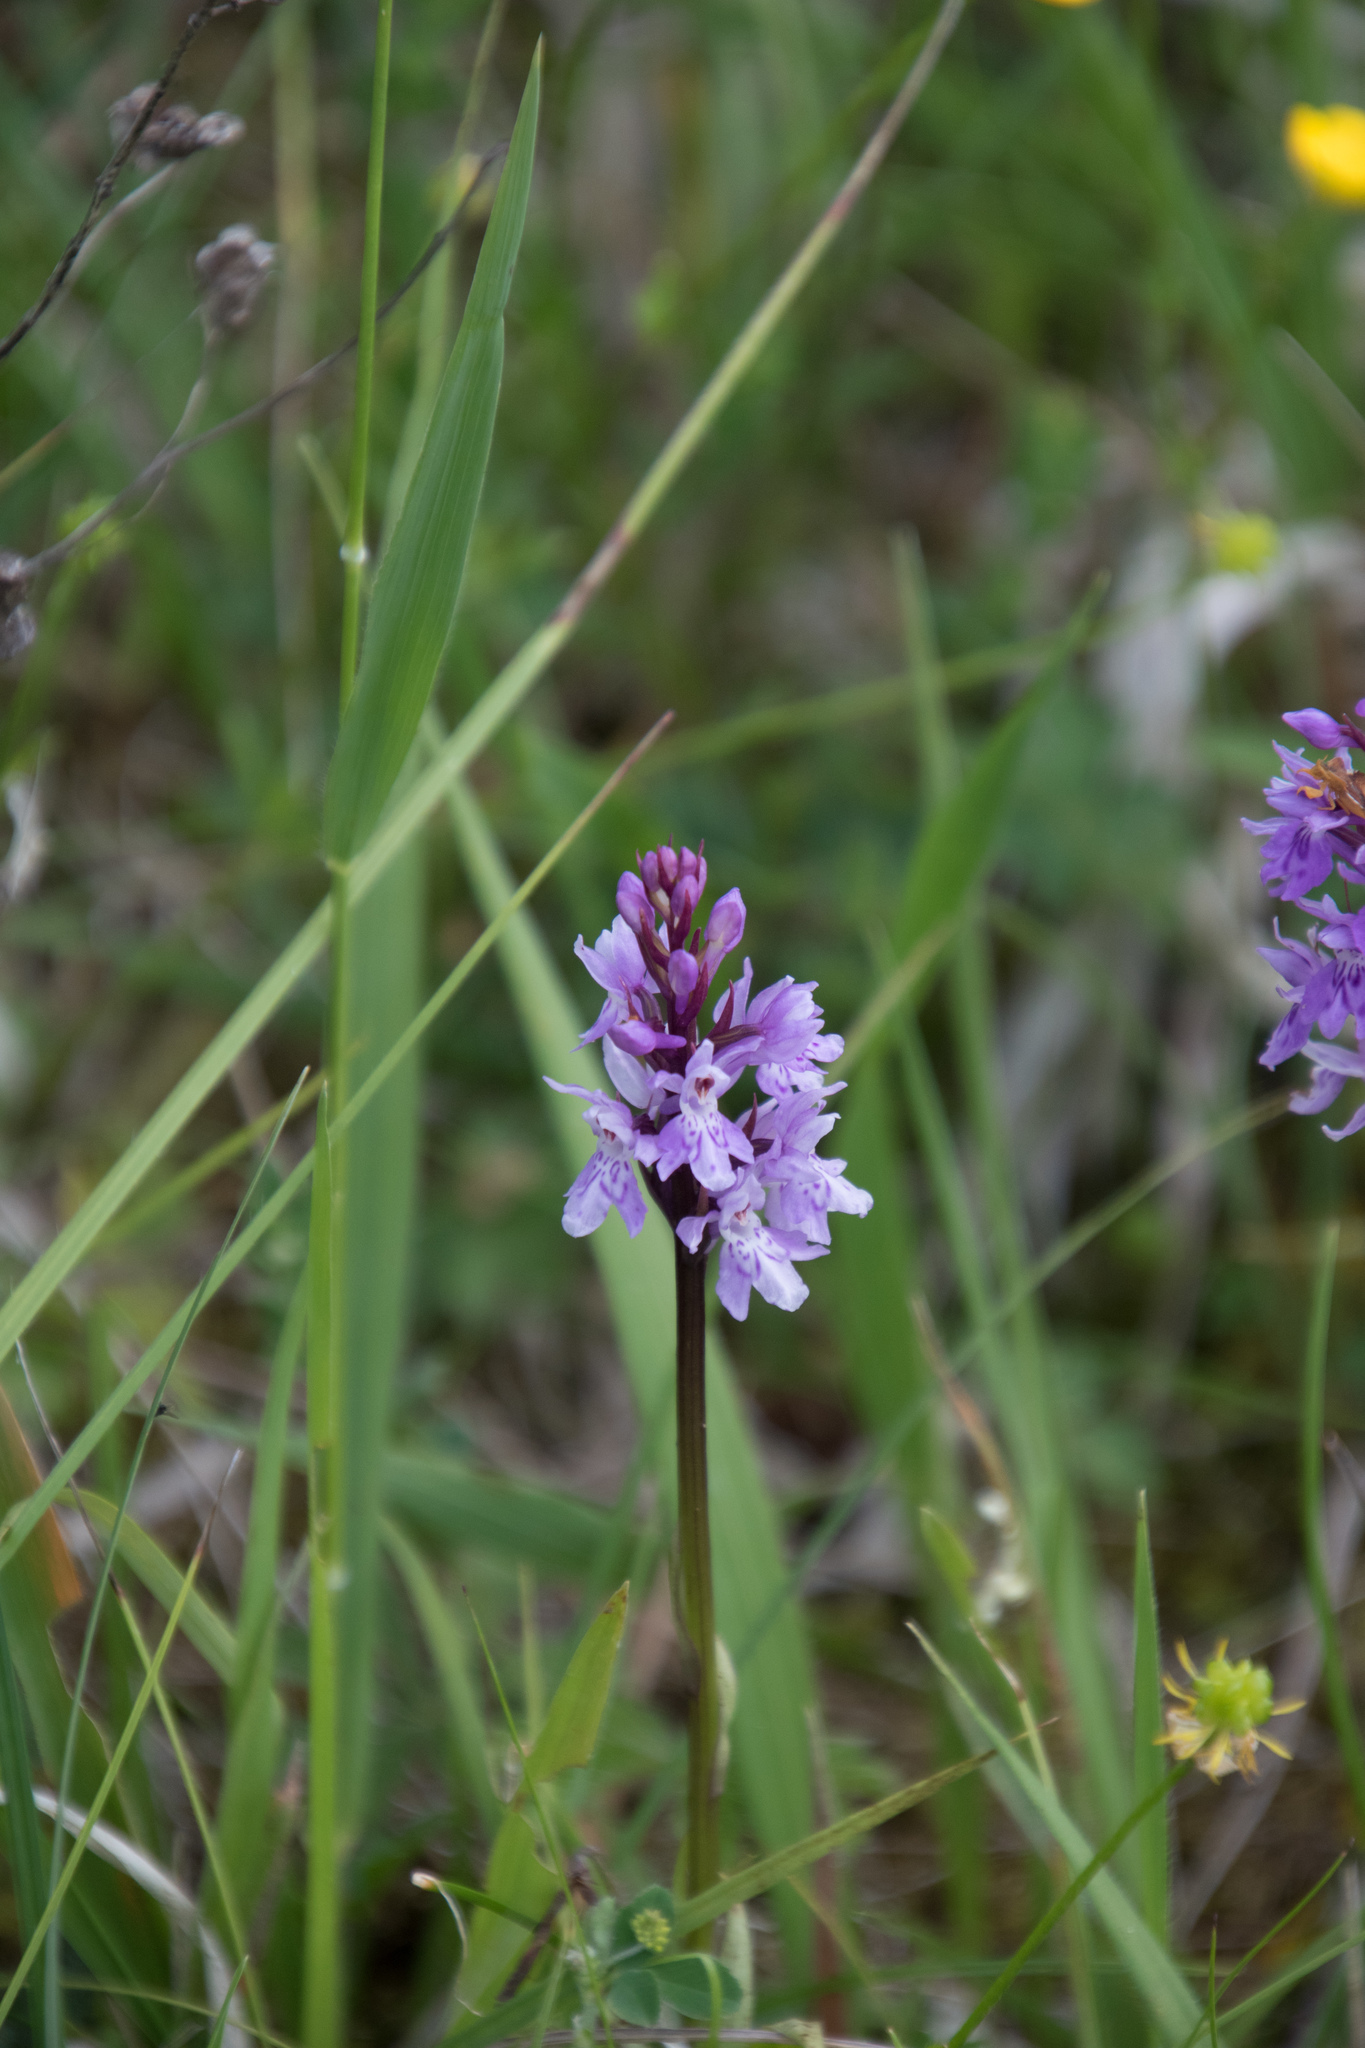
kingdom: Plantae
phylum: Tracheophyta
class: Liliopsida
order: Asparagales
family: Orchidaceae
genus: Dactylorhiza
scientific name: Dactylorhiza maculata
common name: Heath spotted-orchid
